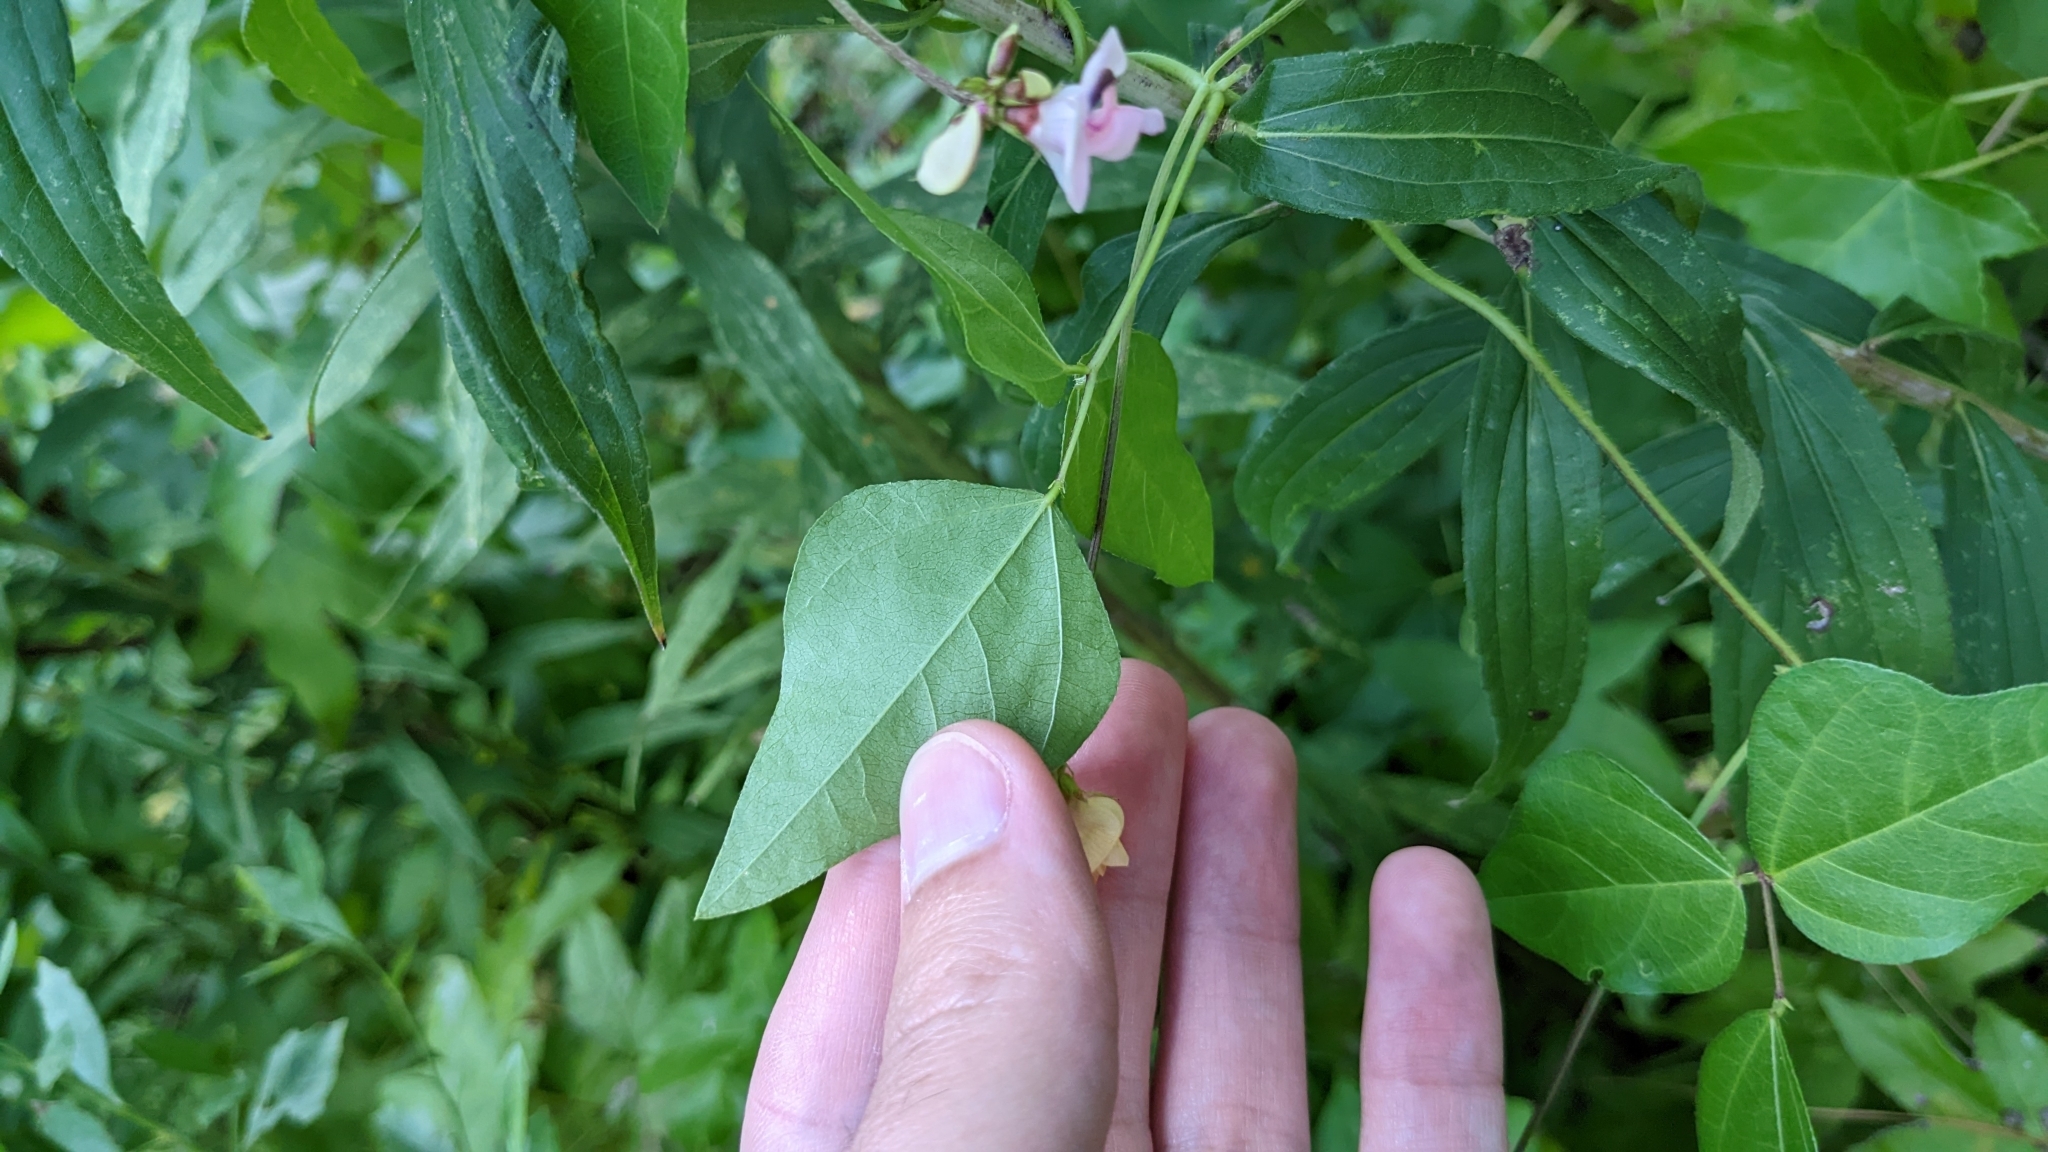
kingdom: Plantae
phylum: Tracheophyta
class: Magnoliopsida
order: Fabales
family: Fabaceae
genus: Strophostyles
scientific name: Strophostyles helvola
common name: Trailing wild bean
